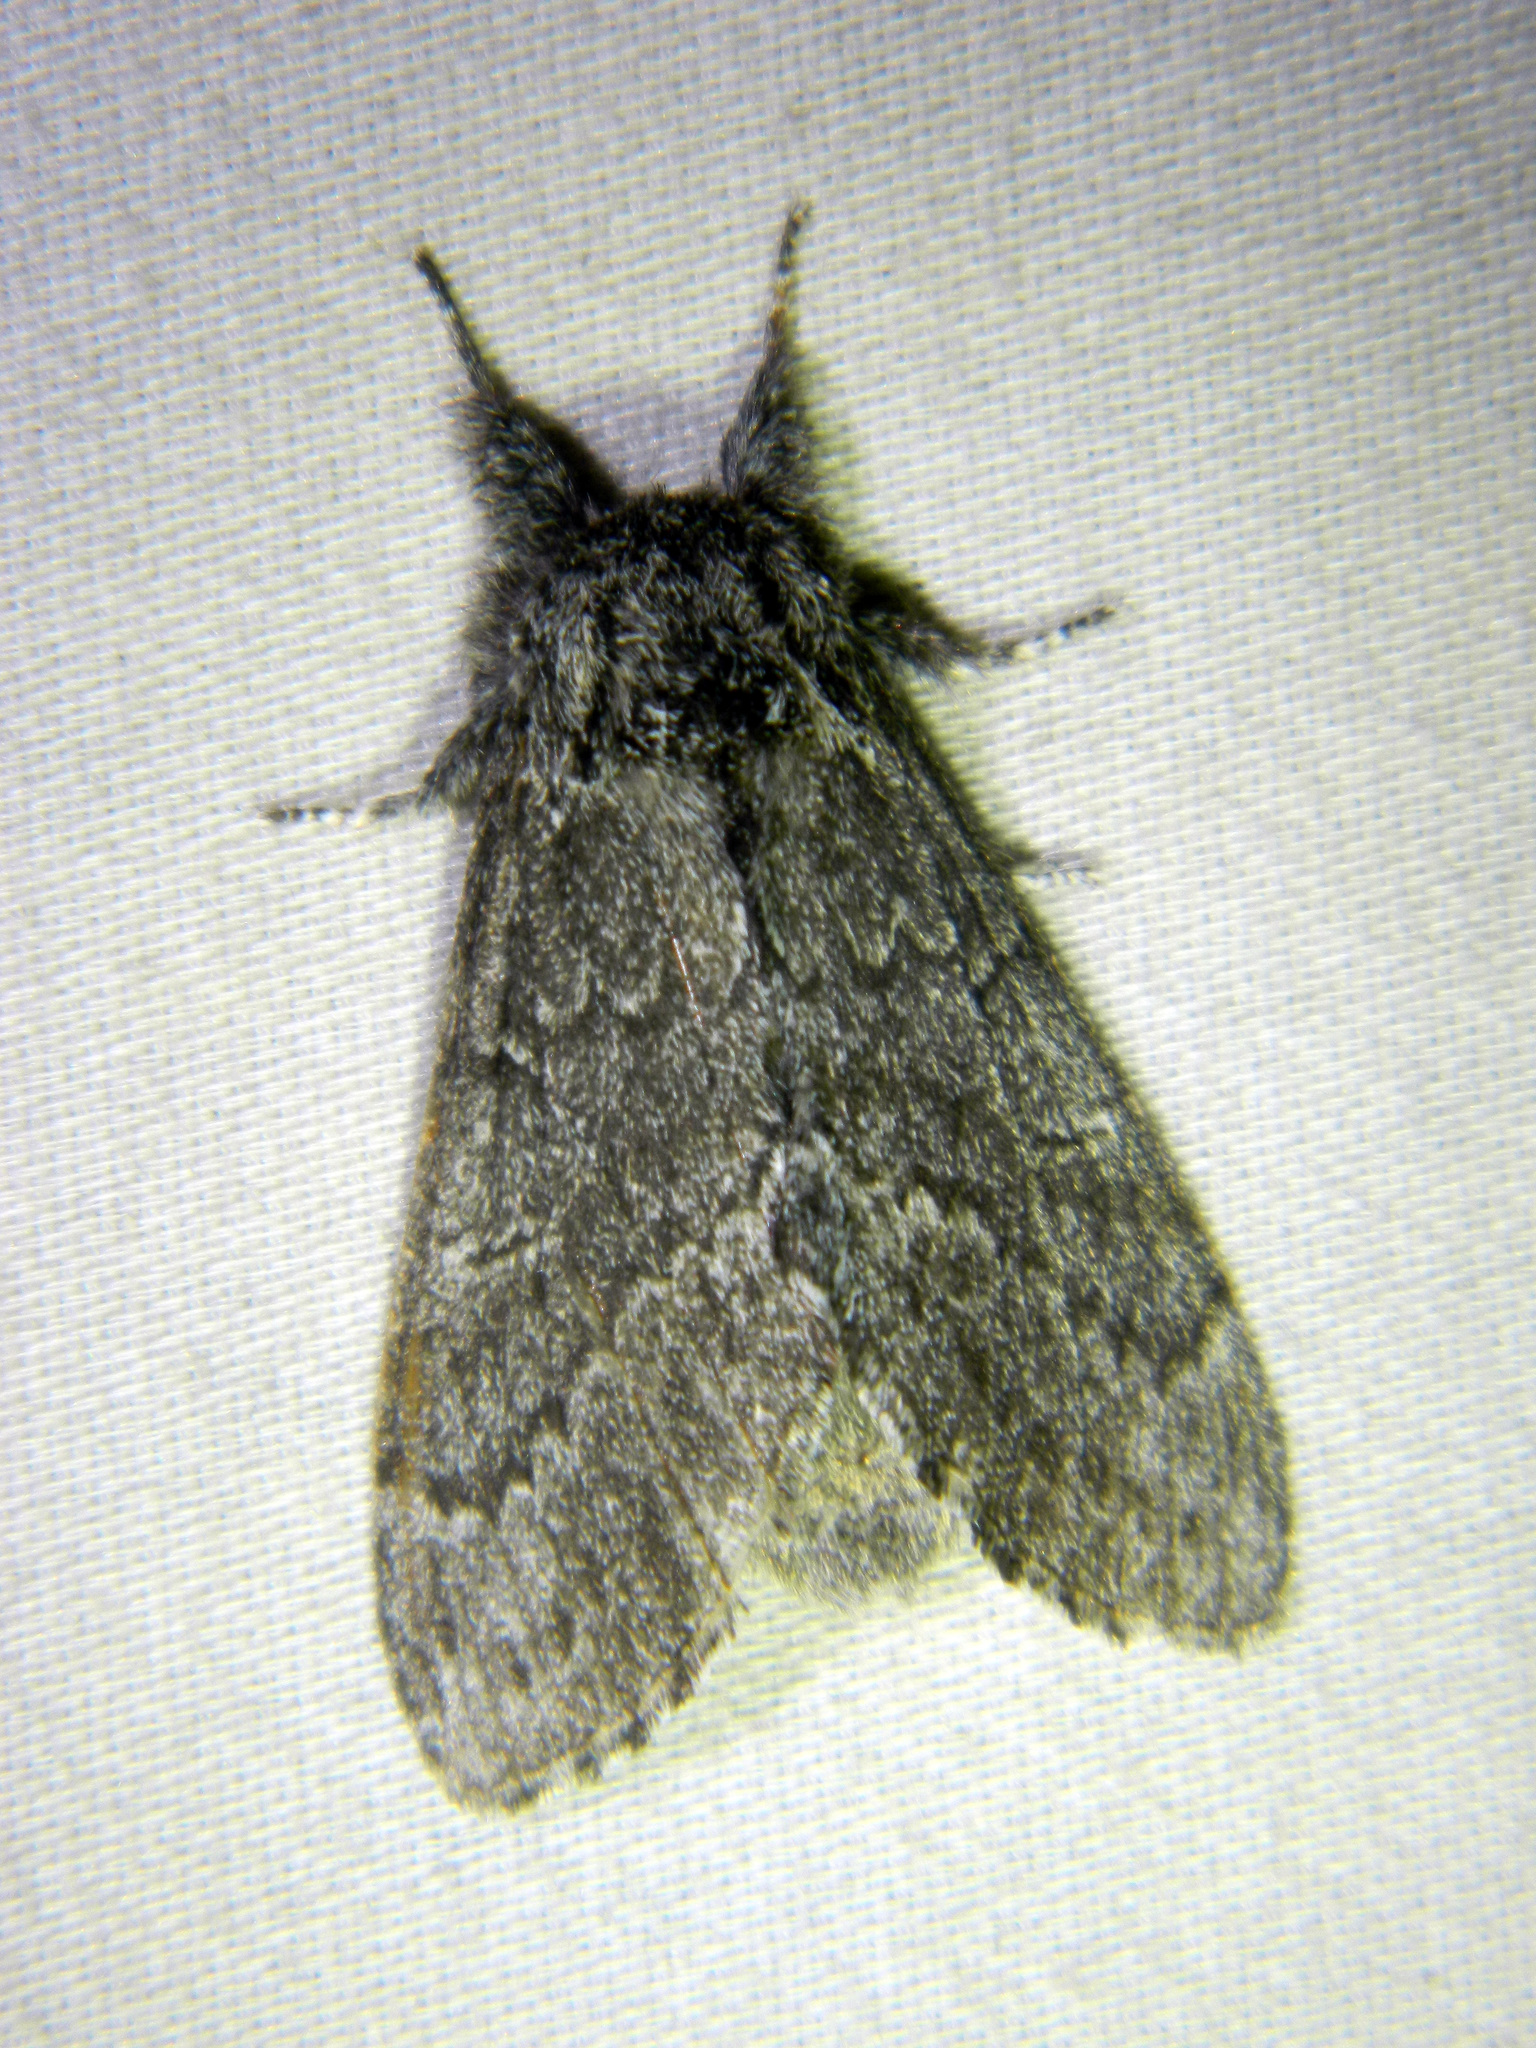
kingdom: Animalia
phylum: Arthropoda
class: Insecta
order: Lepidoptera
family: Notodontidae
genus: Notodonta
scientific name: Notodonta torva
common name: Large dark prominent
